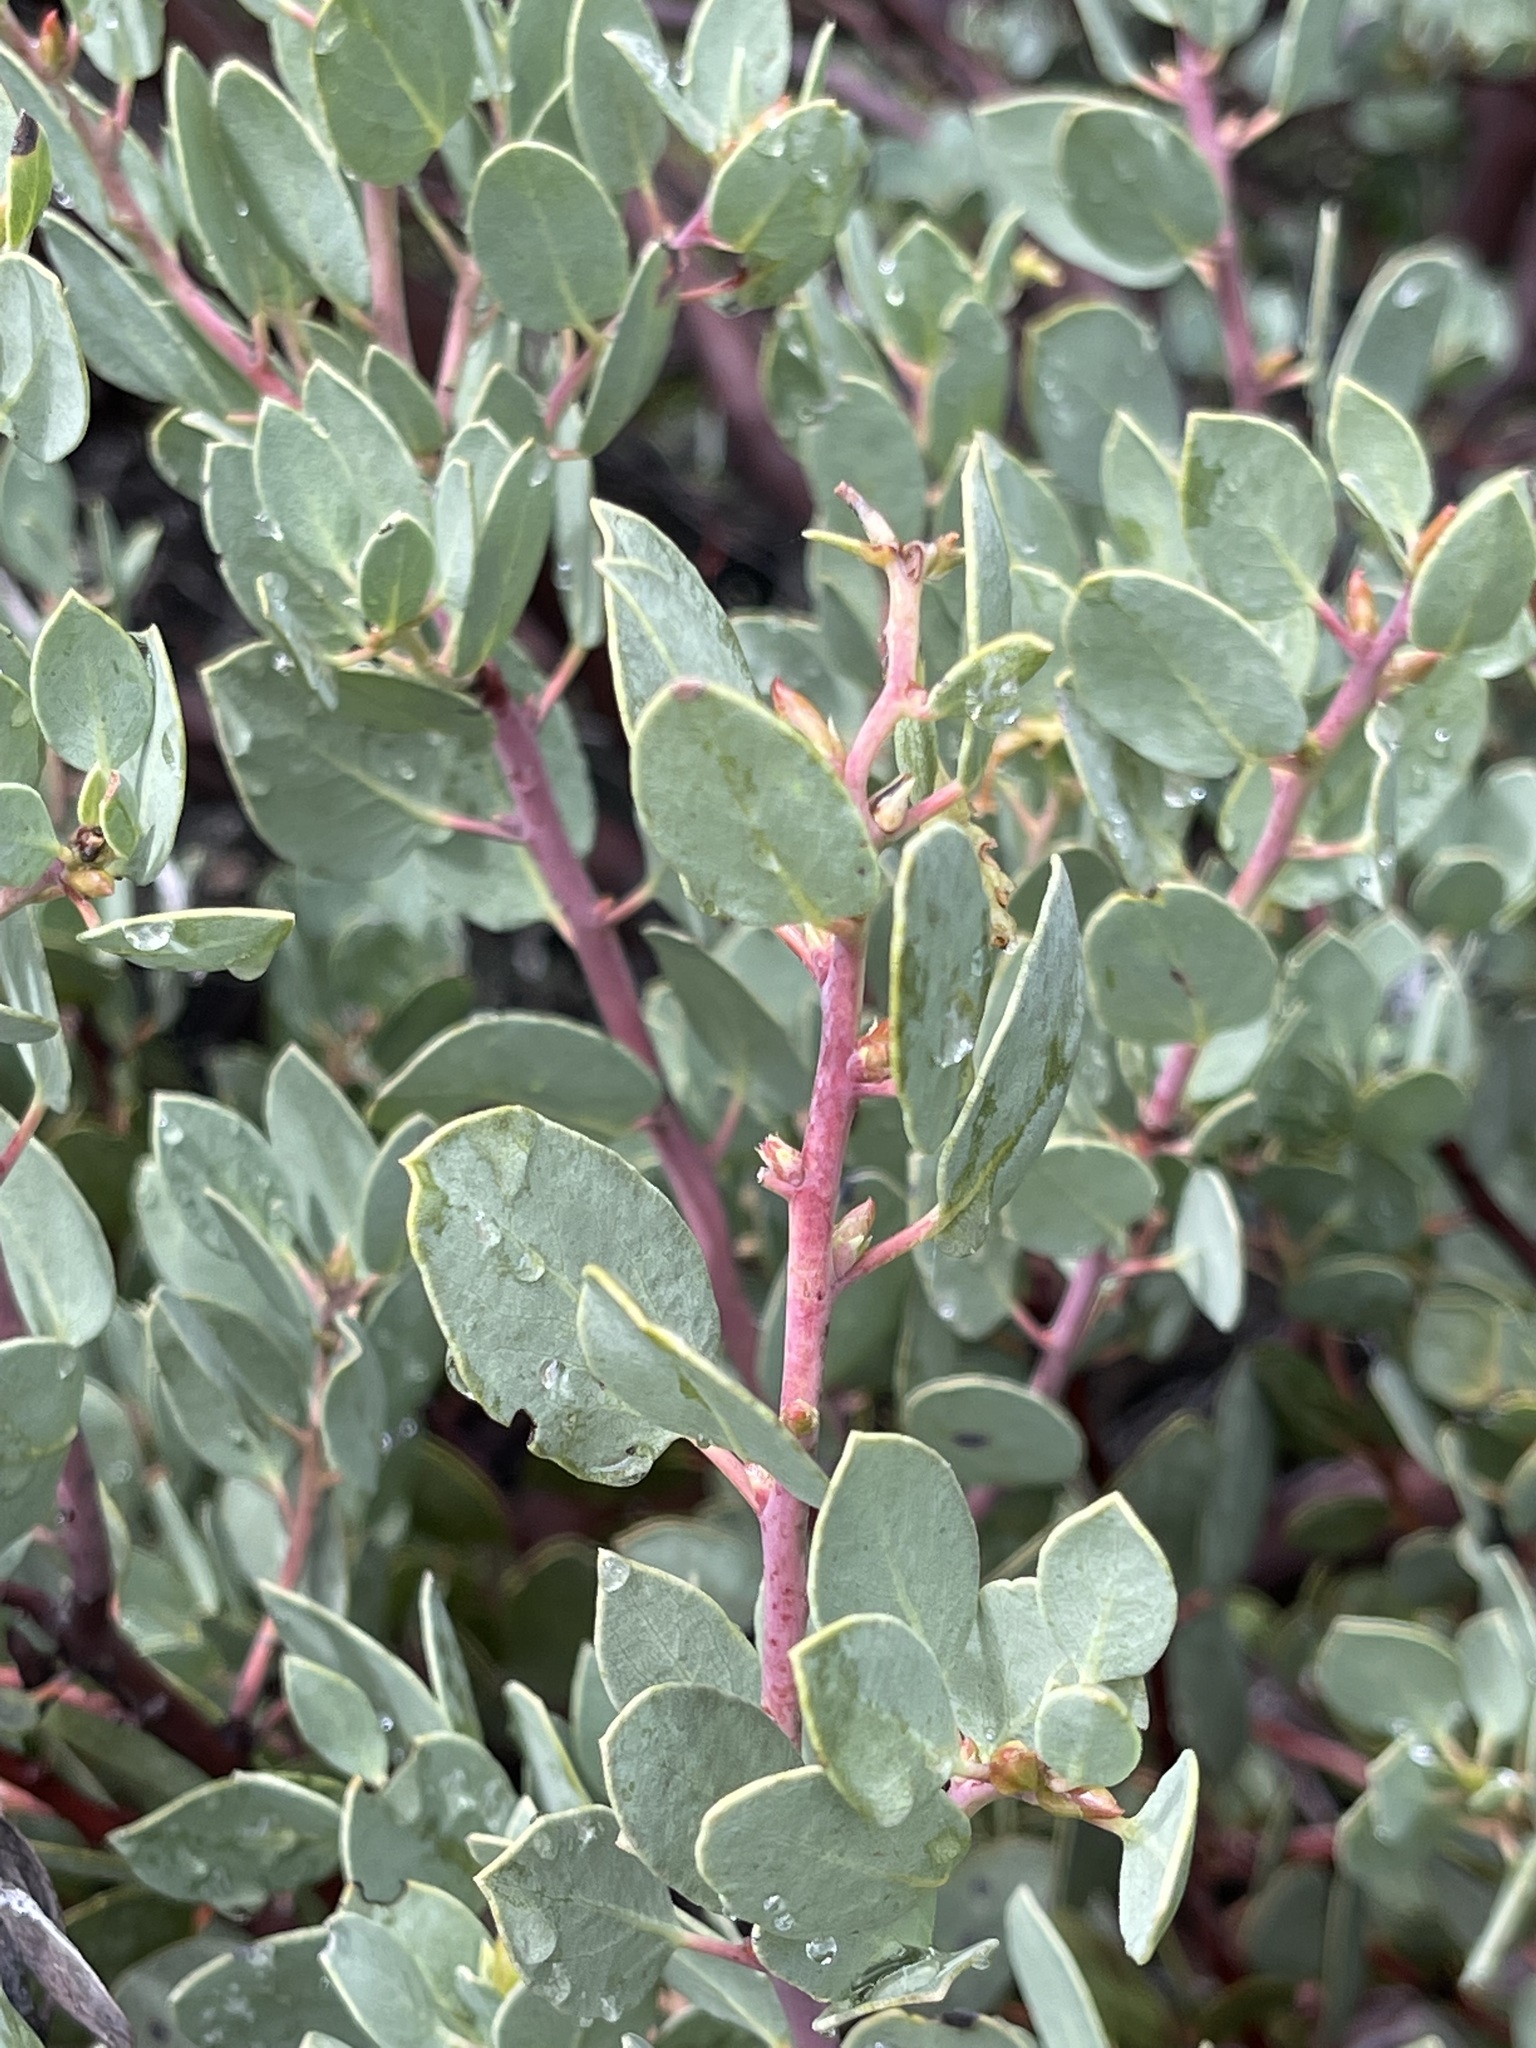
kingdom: Plantae
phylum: Tracheophyta
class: Magnoliopsida
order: Ericales
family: Ericaceae
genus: Arctostaphylos
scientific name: Arctostaphylos viscida
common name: White-leaf manzanita
